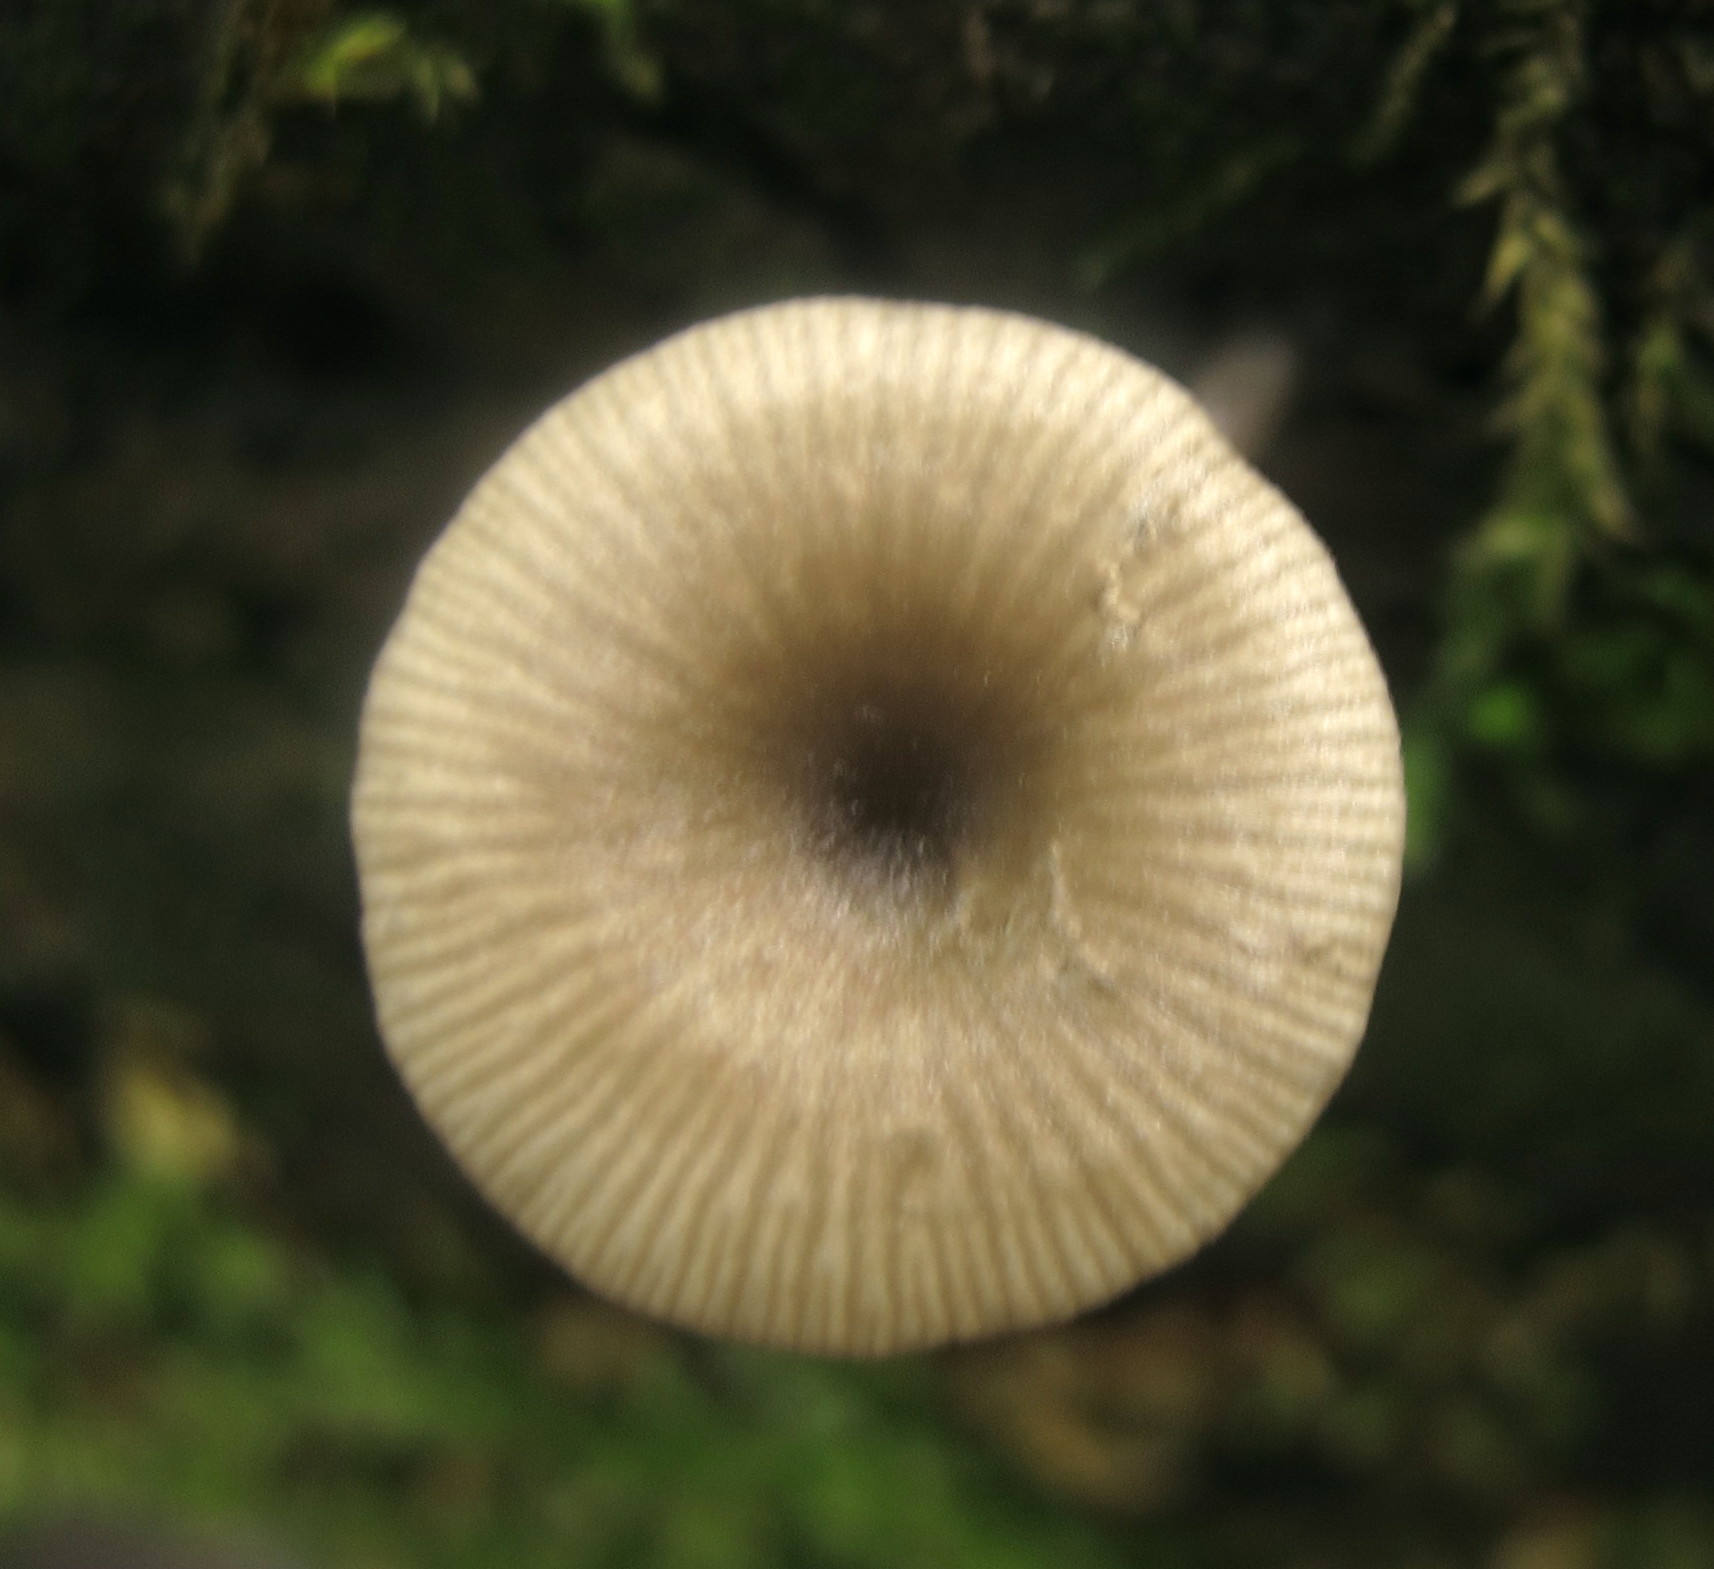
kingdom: Fungi
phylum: Basidiomycota
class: Agaricomycetes
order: Agaricales
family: Hygrophoraceae
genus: Arrhenia
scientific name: Arrhenia epichysium
